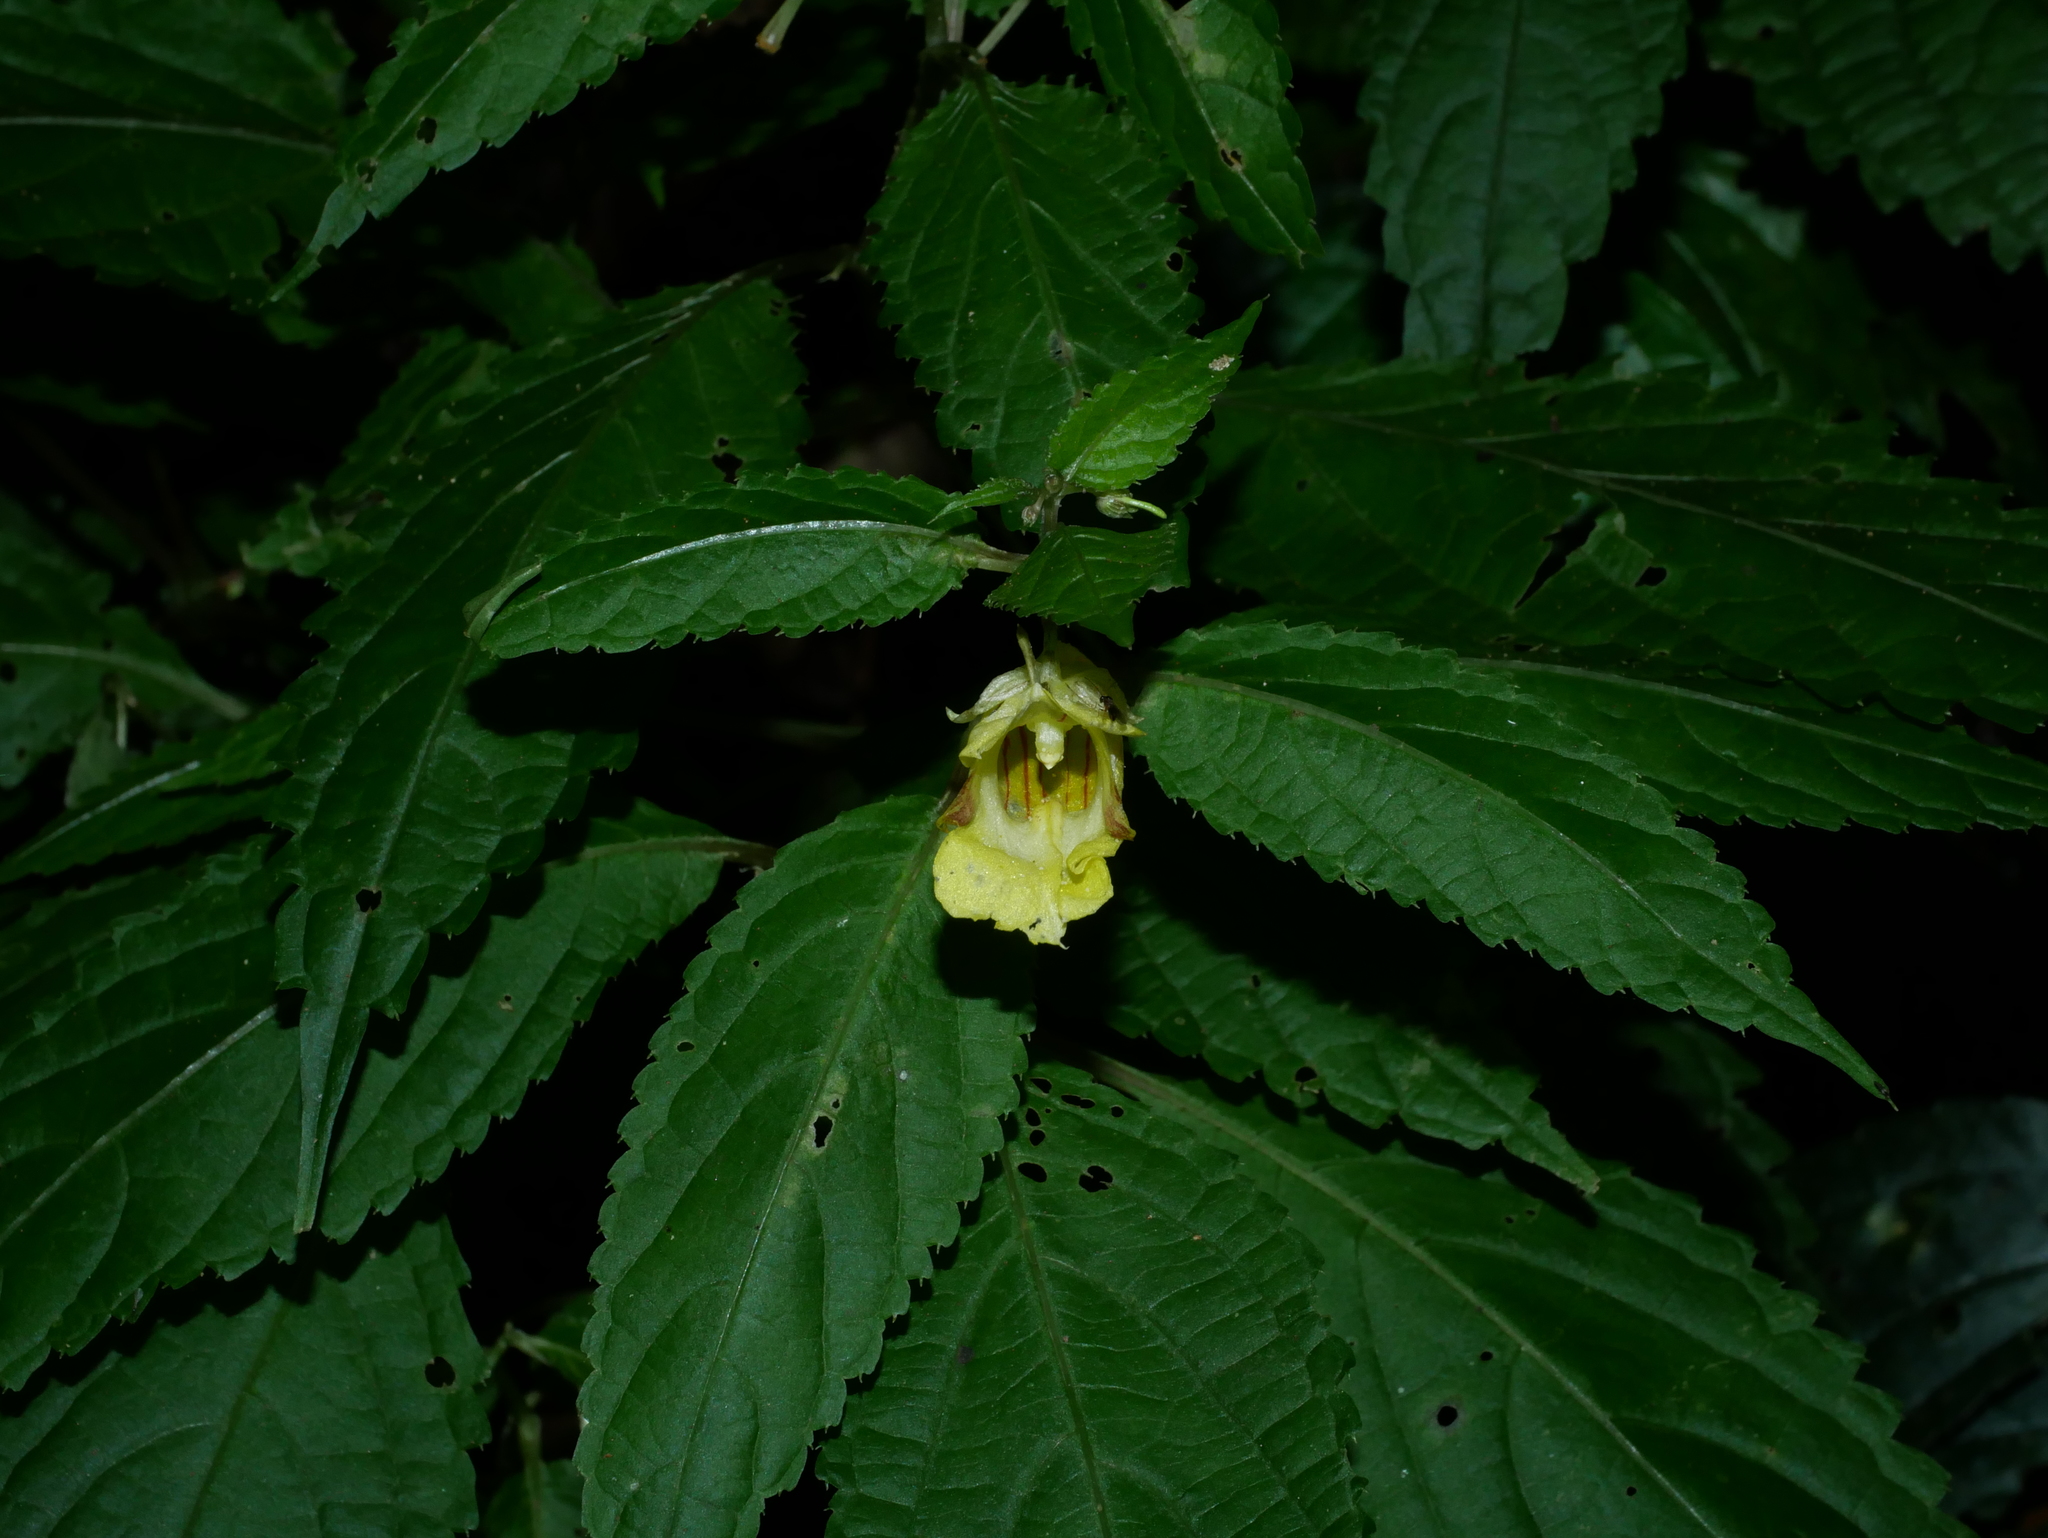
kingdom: Plantae
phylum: Tracheophyta
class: Magnoliopsida
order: Ericales
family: Balsaminaceae
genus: Impatiens
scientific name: Impatiens tayemonii
